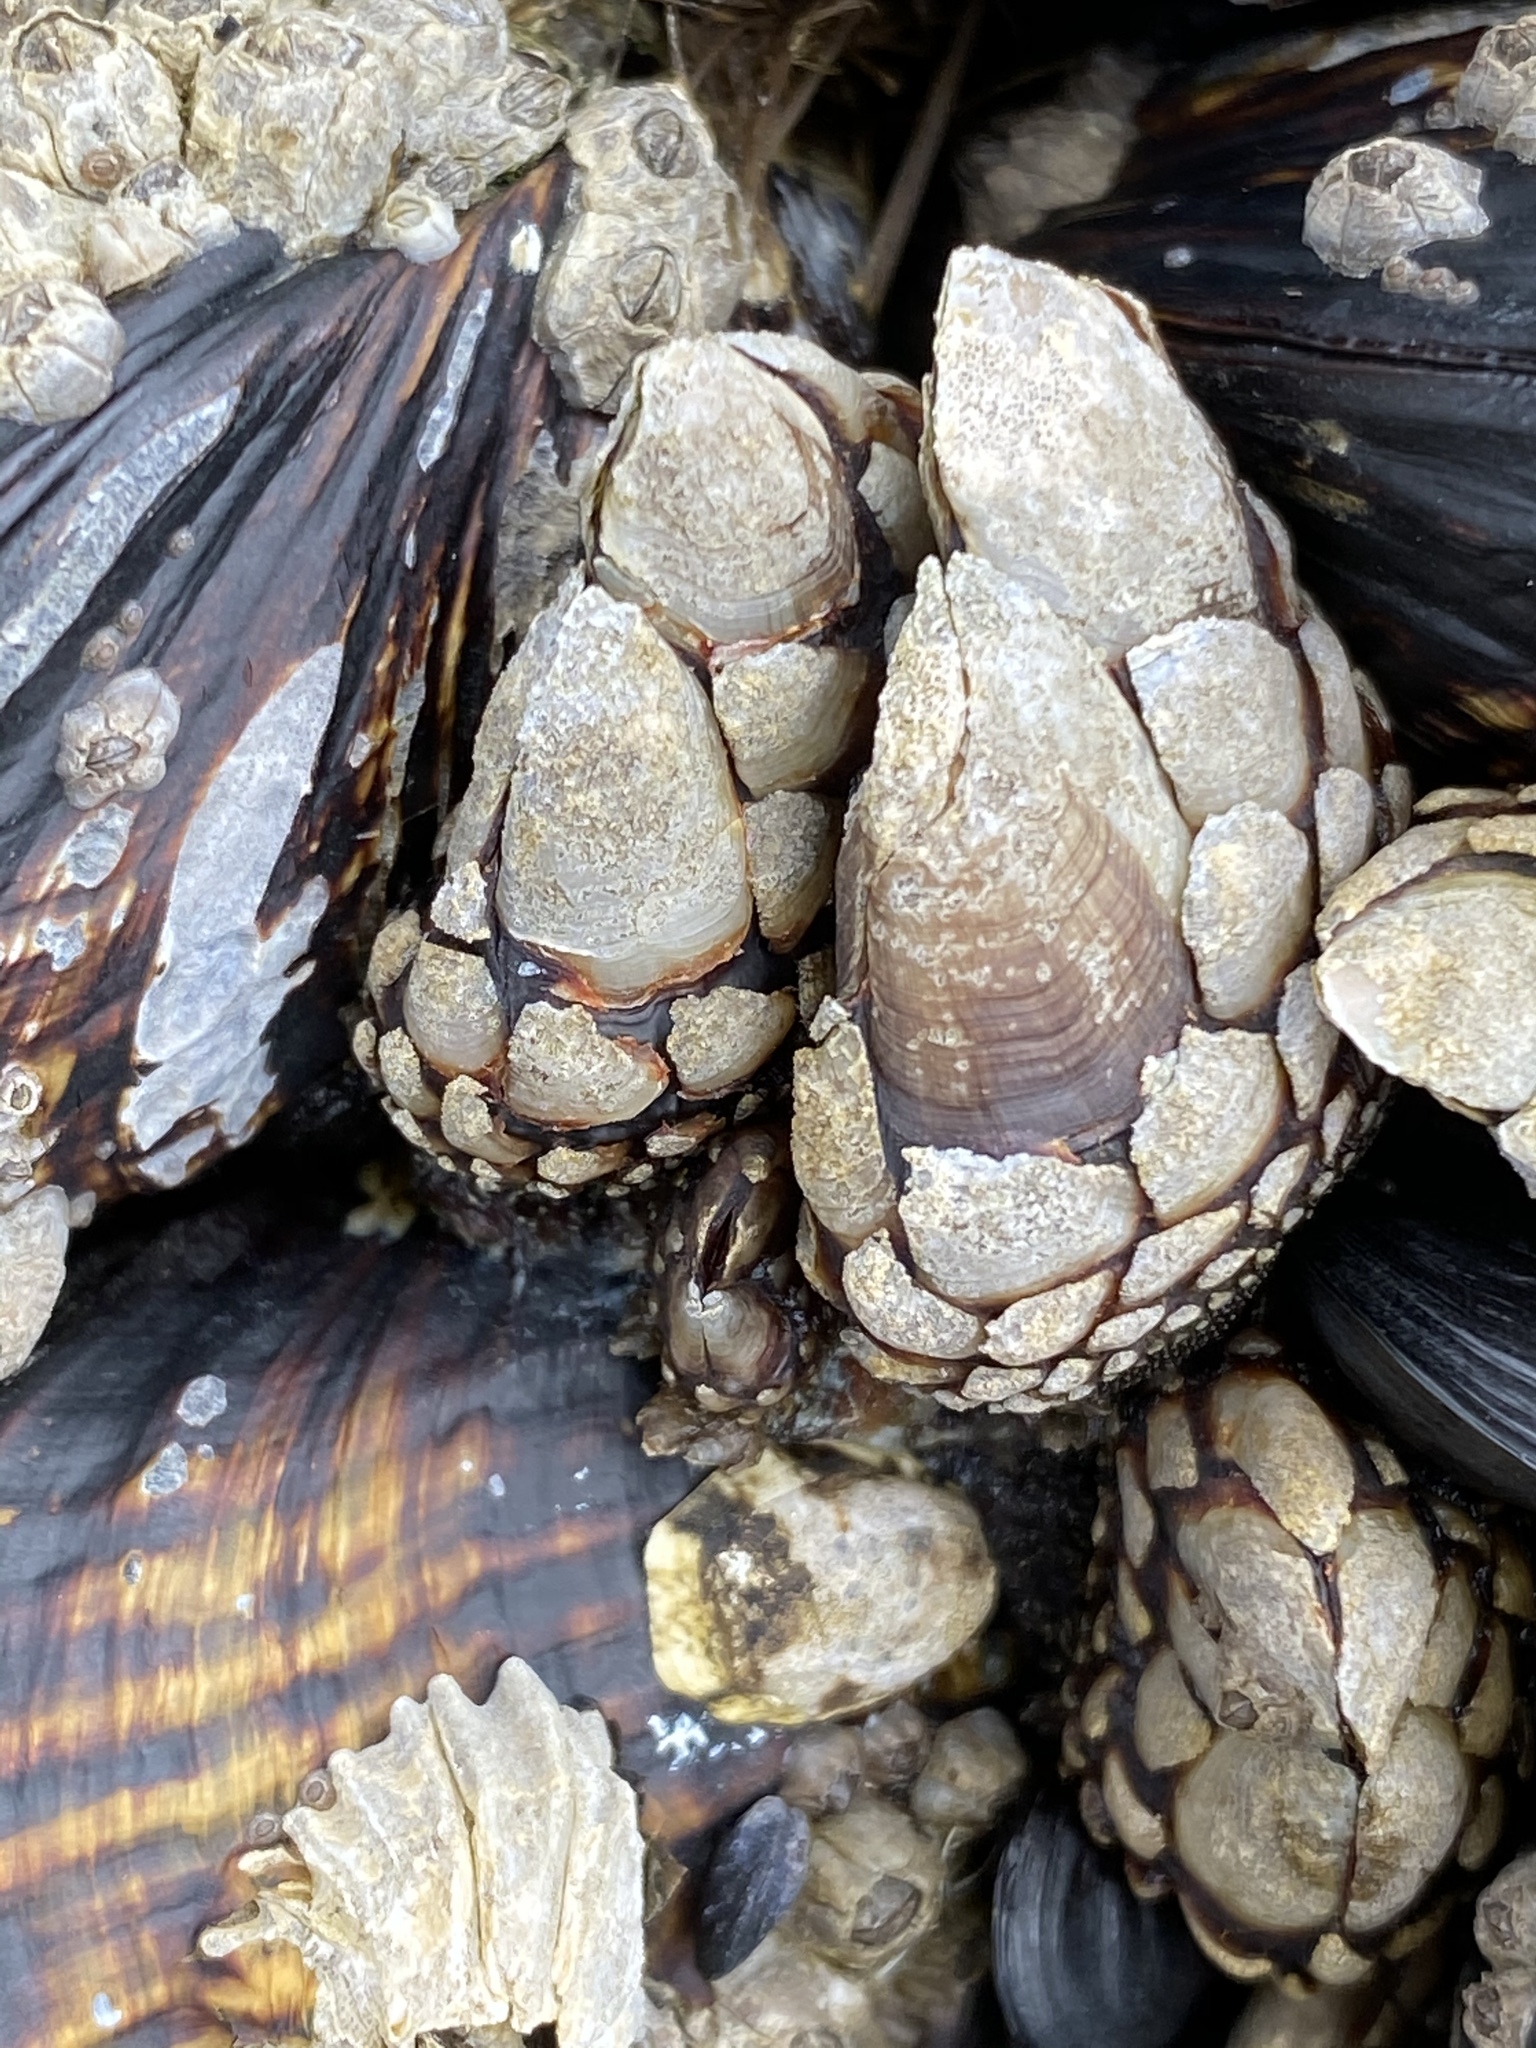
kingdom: Animalia
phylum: Arthropoda
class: Maxillopoda
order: Pedunculata
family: Pollicipedidae
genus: Pollicipes
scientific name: Pollicipes polymerus
